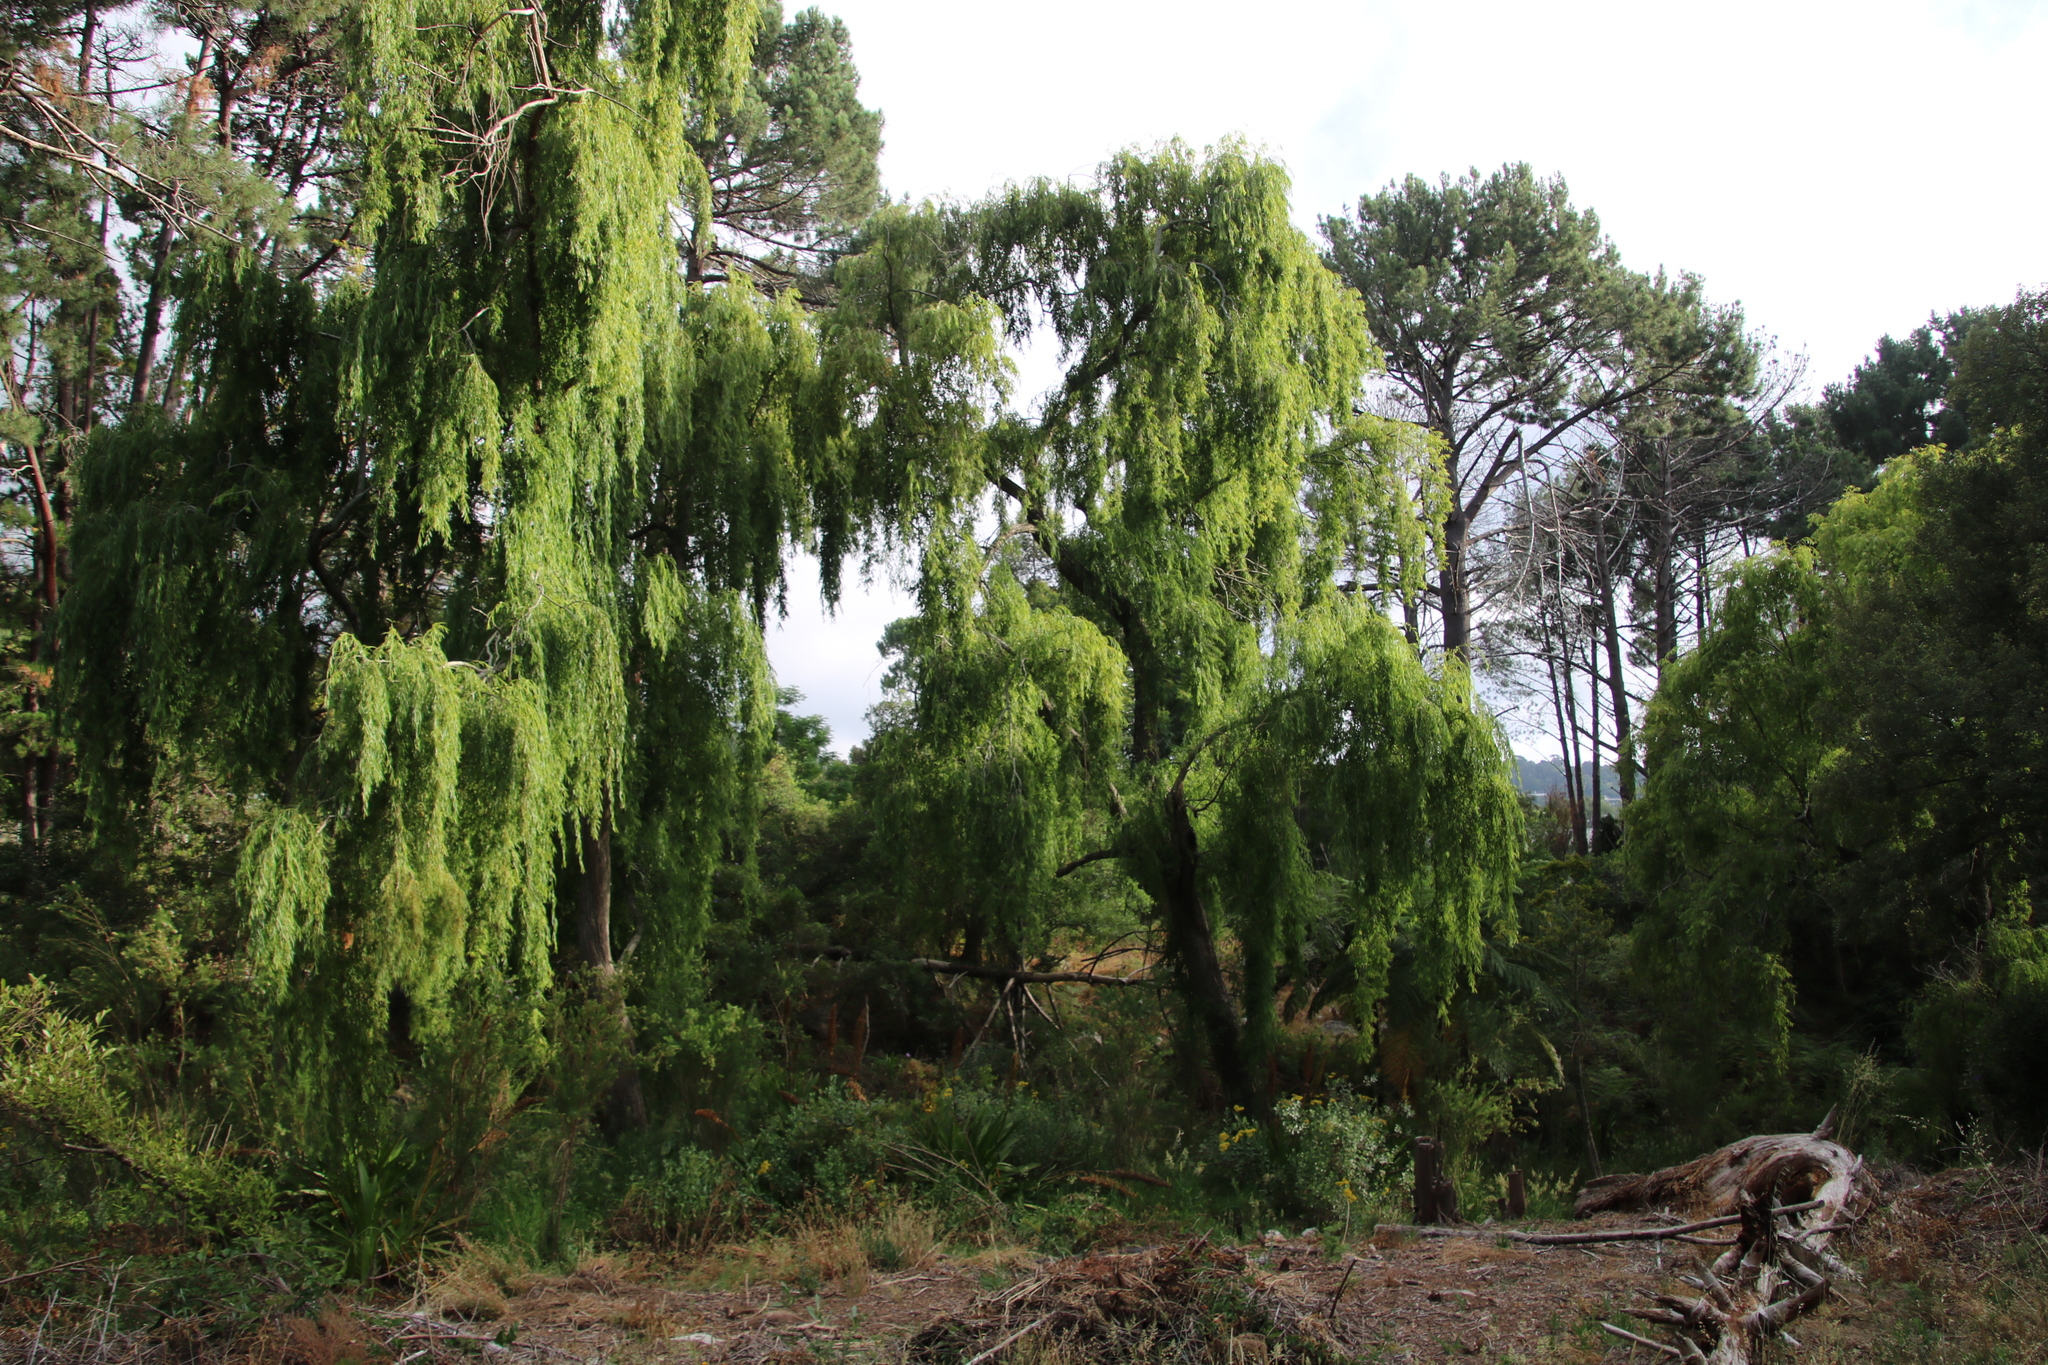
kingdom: Plantae
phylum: Tracheophyta
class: Magnoliopsida
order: Malpighiales
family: Salicaceae
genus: Salix
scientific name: Salix babylonica
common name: Weeping willow
